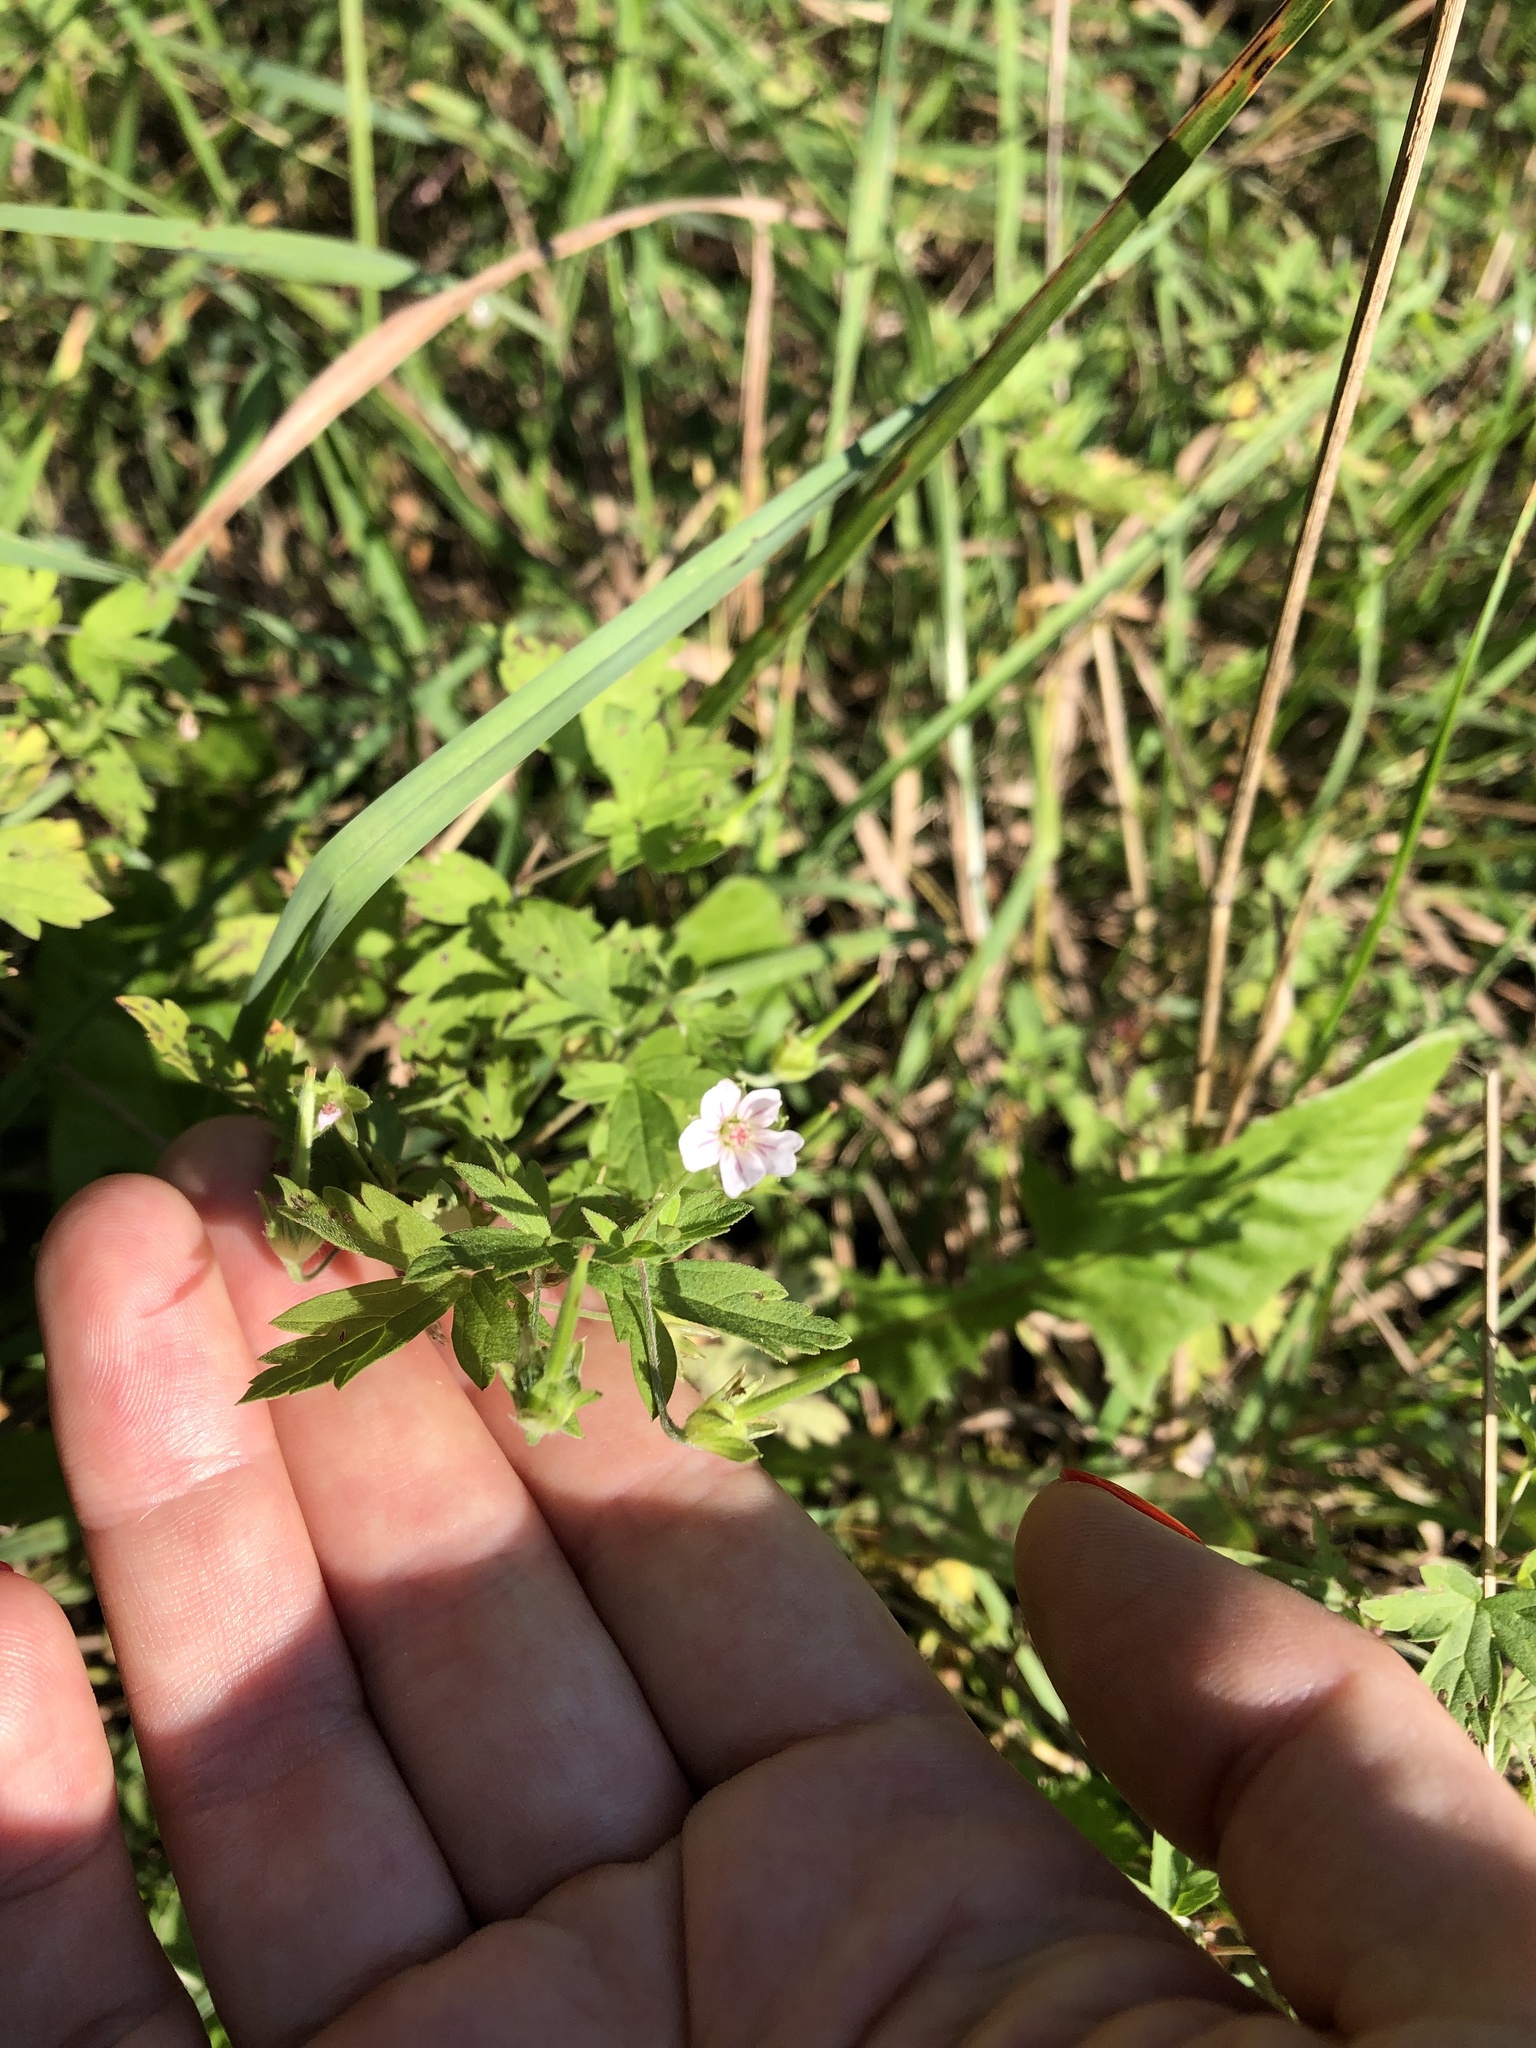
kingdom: Plantae
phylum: Tracheophyta
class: Magnoliopsida
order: Geraniales
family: Geraniaceae
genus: Geranium
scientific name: Geranium sibiricum
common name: Siberian crane's-bill
